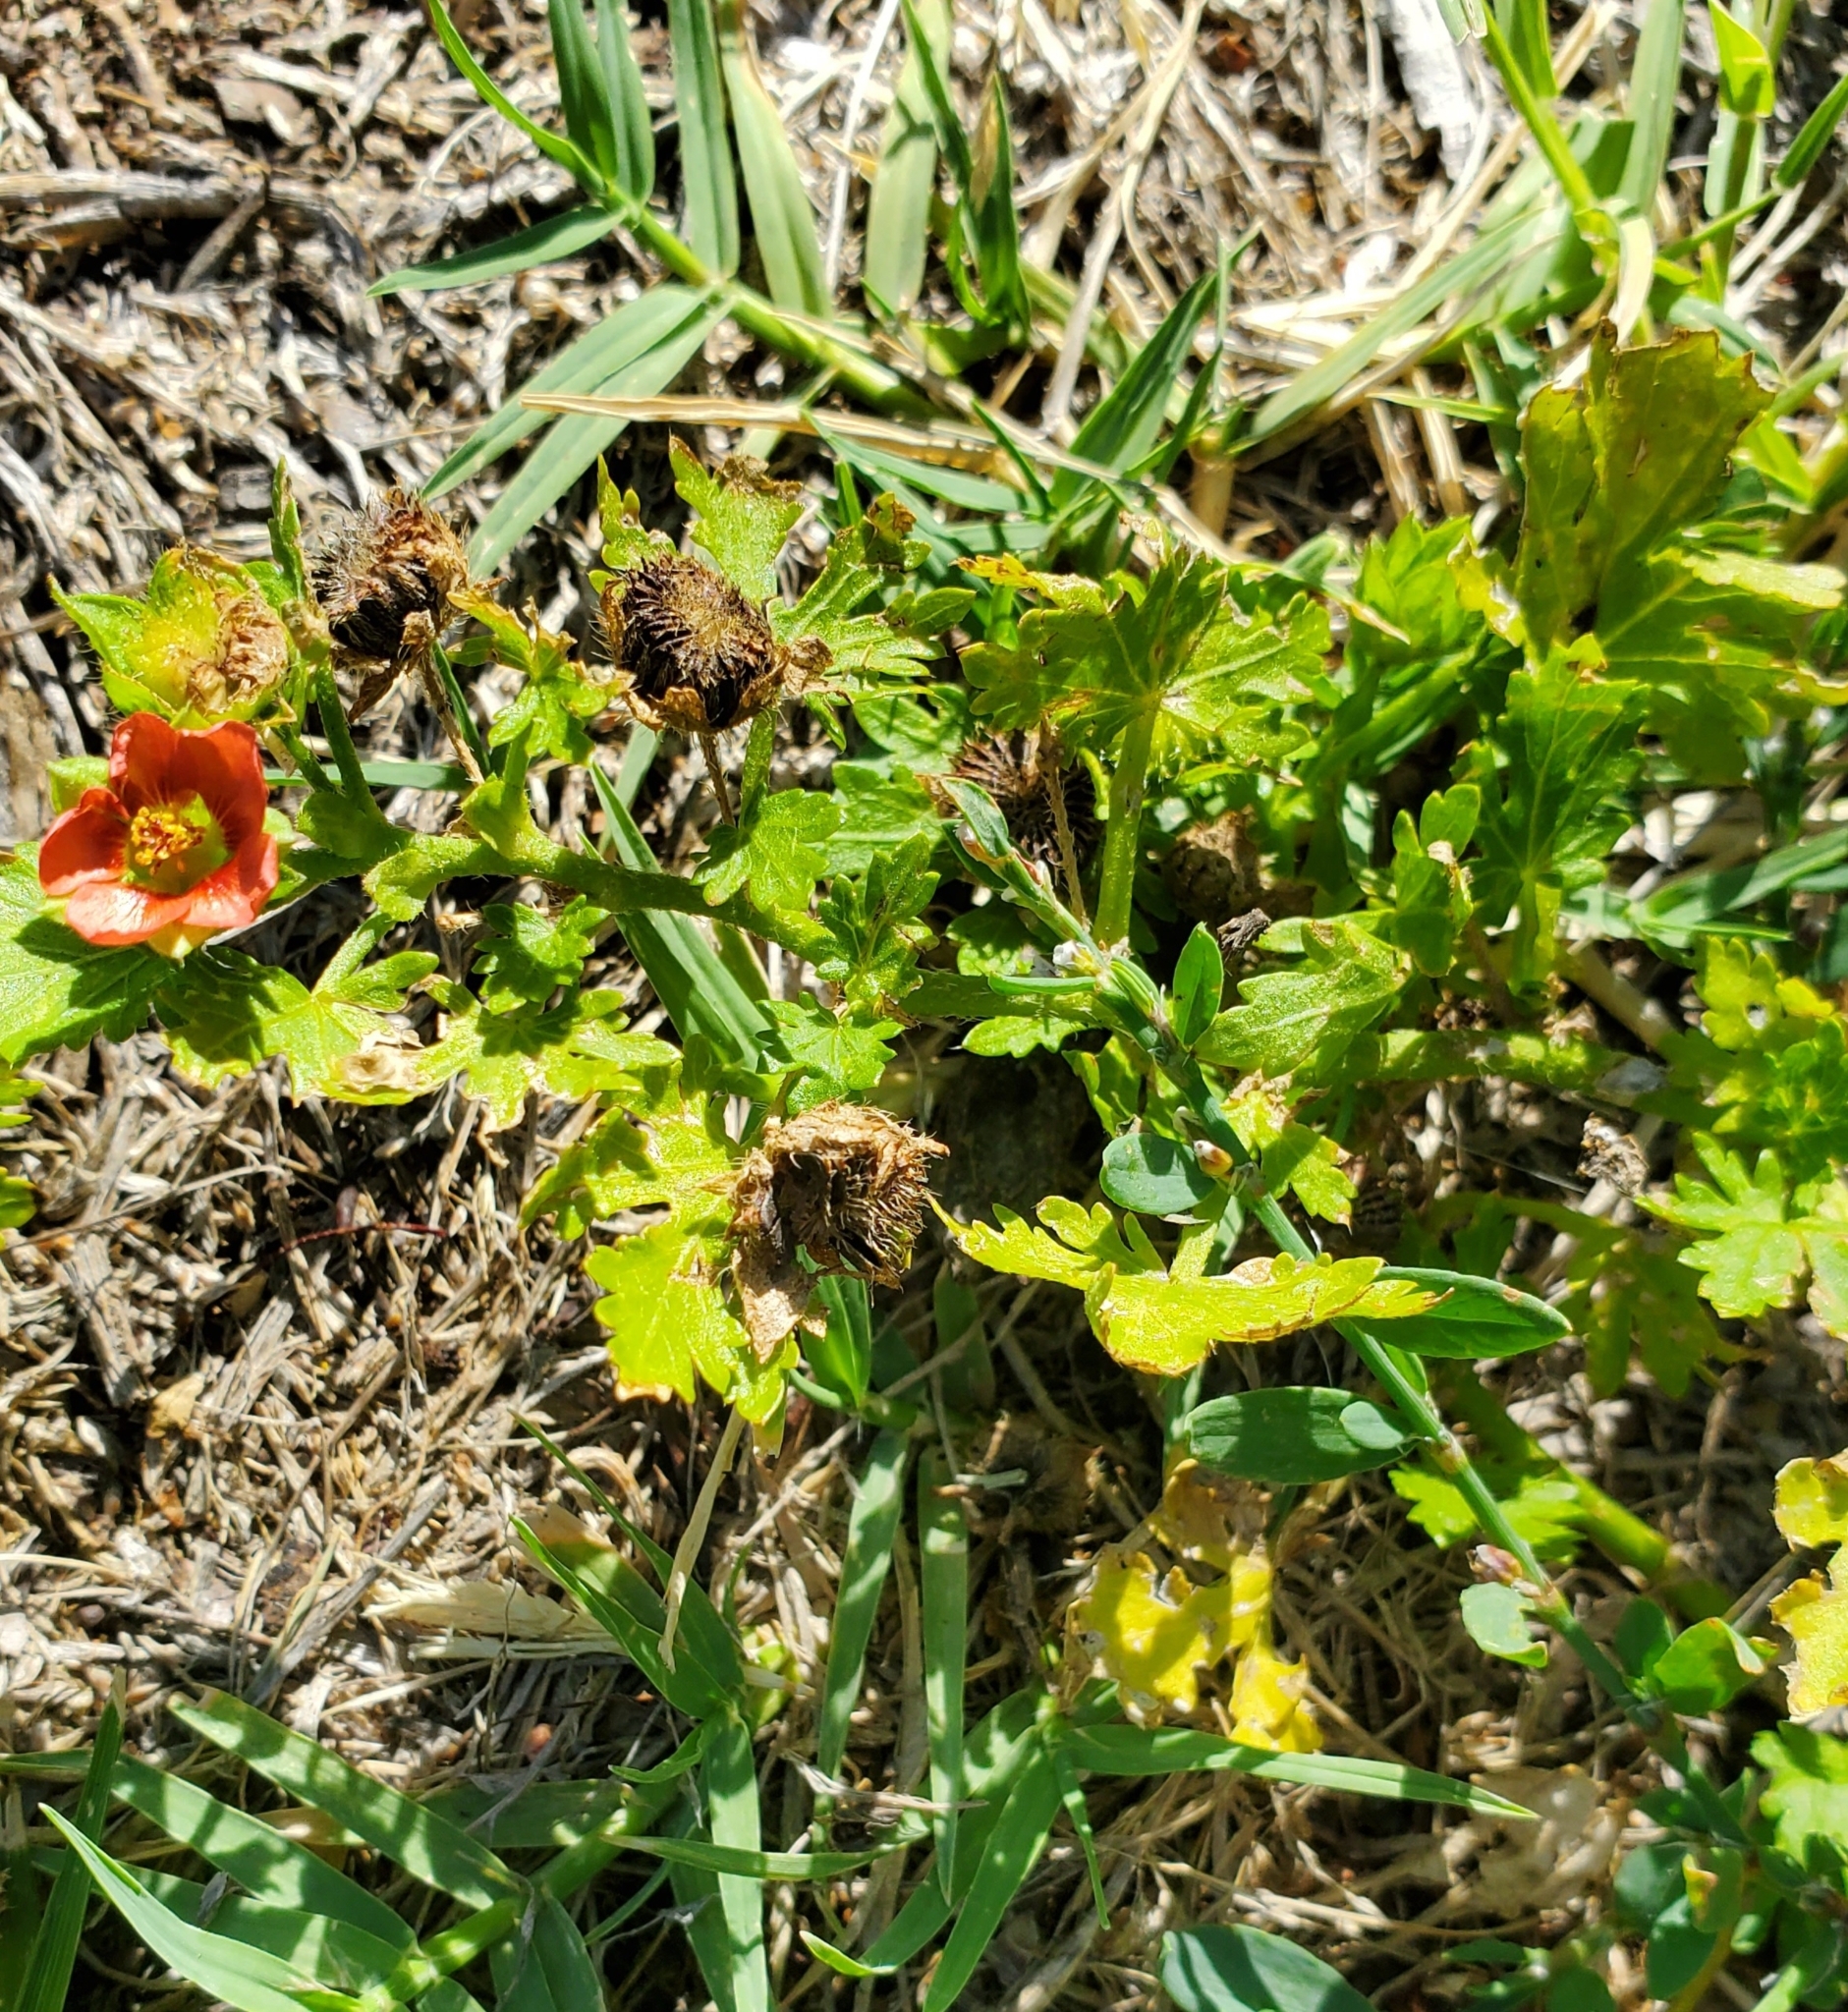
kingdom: Plantae
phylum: Tracheophyta
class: Magnoliopsida
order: Malvales
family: Malvaceae
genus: Modiola
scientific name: Modiola caroliniana
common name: Carolina bristlemallow
